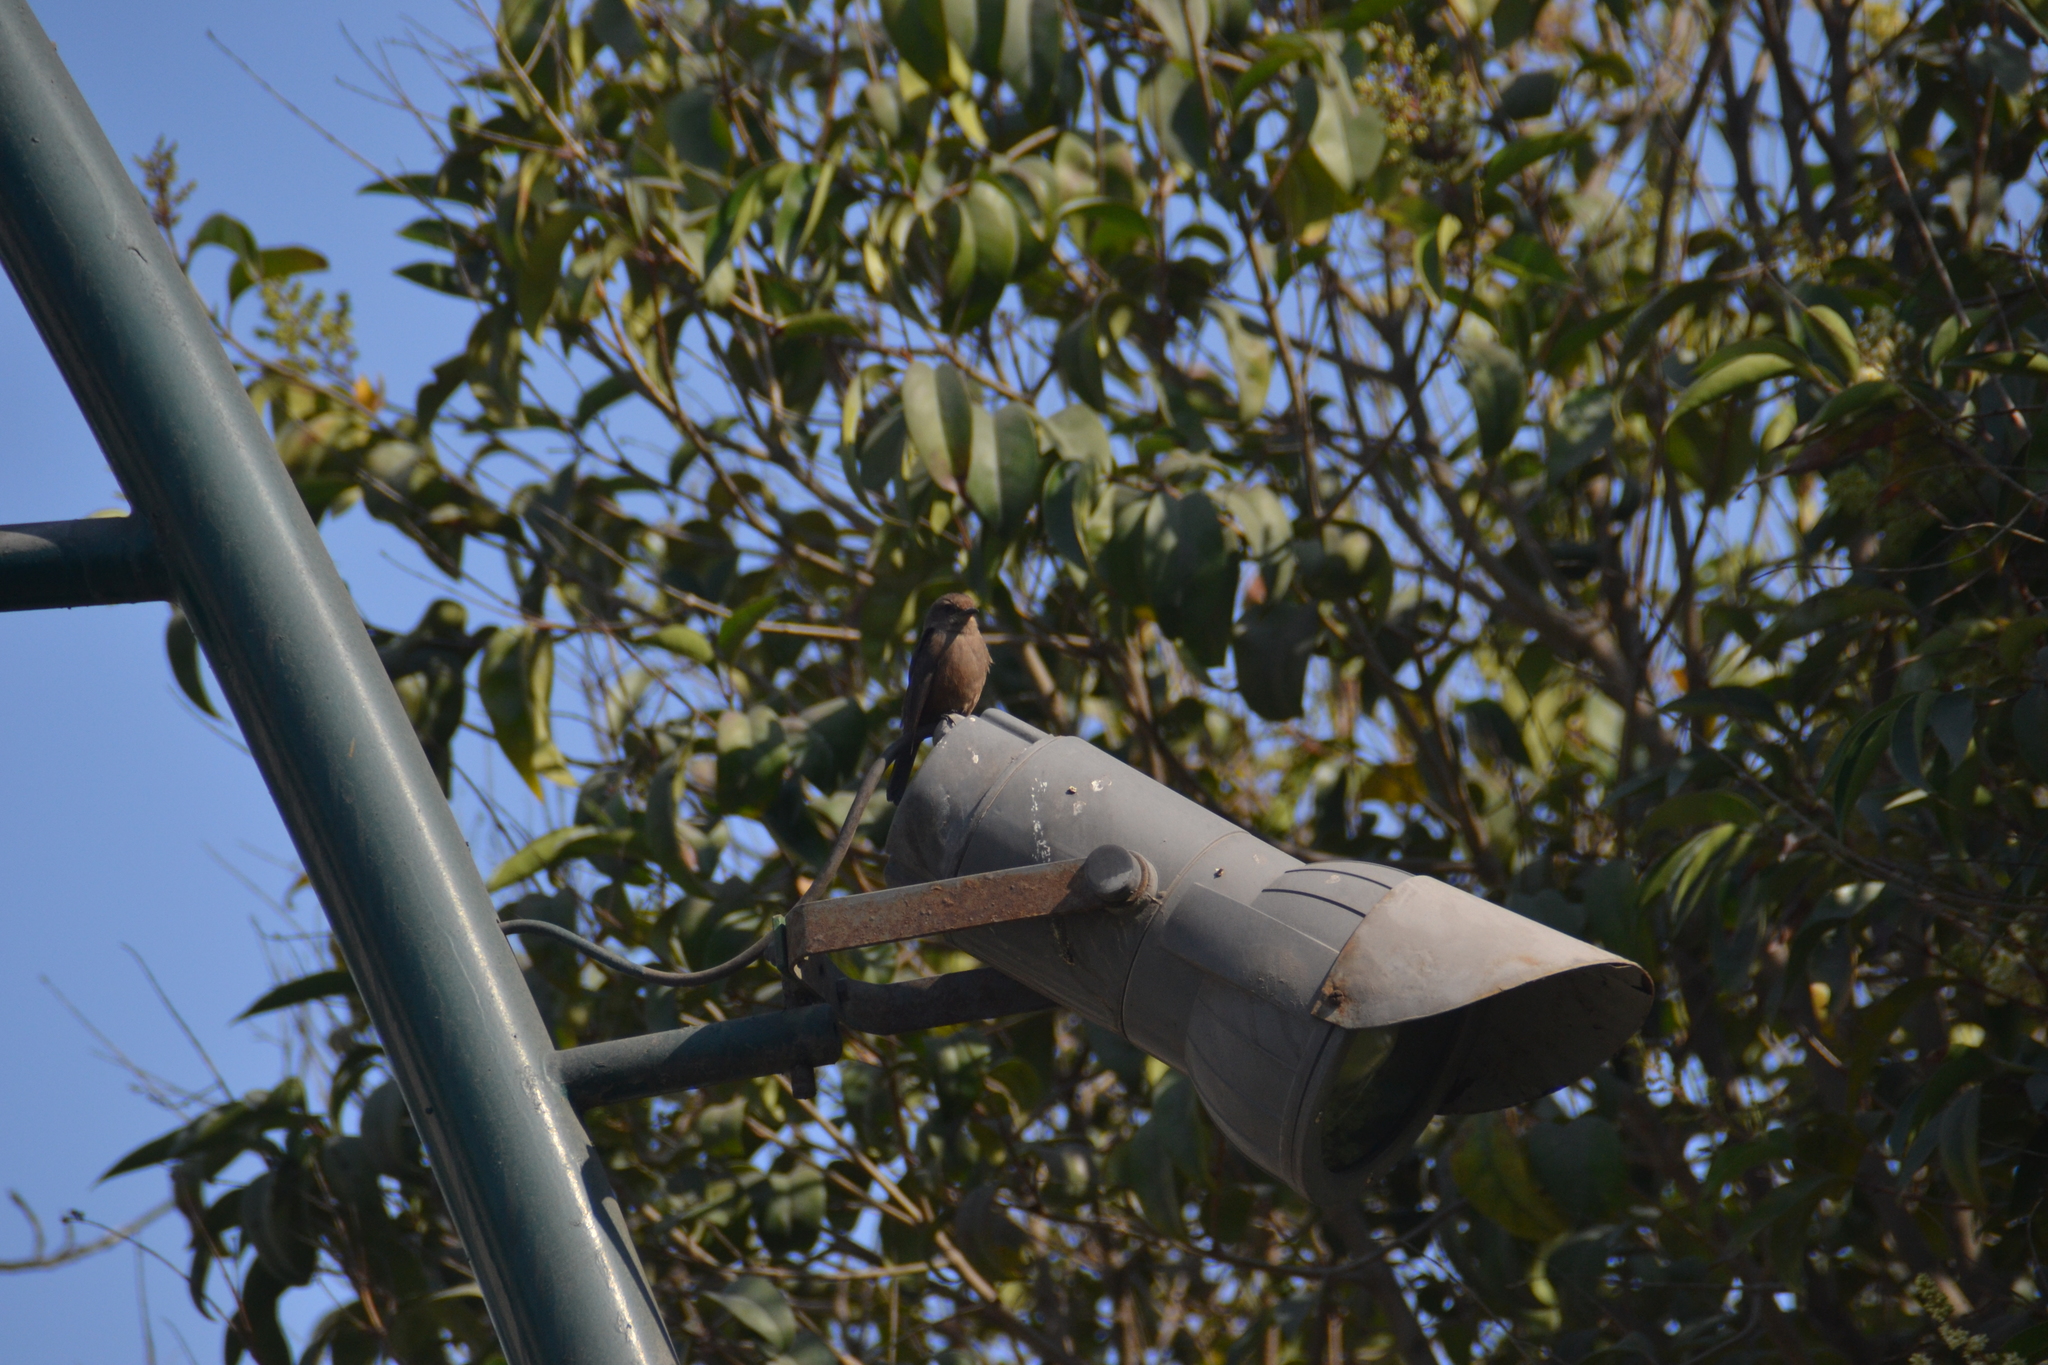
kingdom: Animalia
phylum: Chordata
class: Aves
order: Passeriformes
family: Tyrannidae
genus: Pyrocephalus
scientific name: Pyrocephalus rubinus
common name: Vermilion flycatcher
